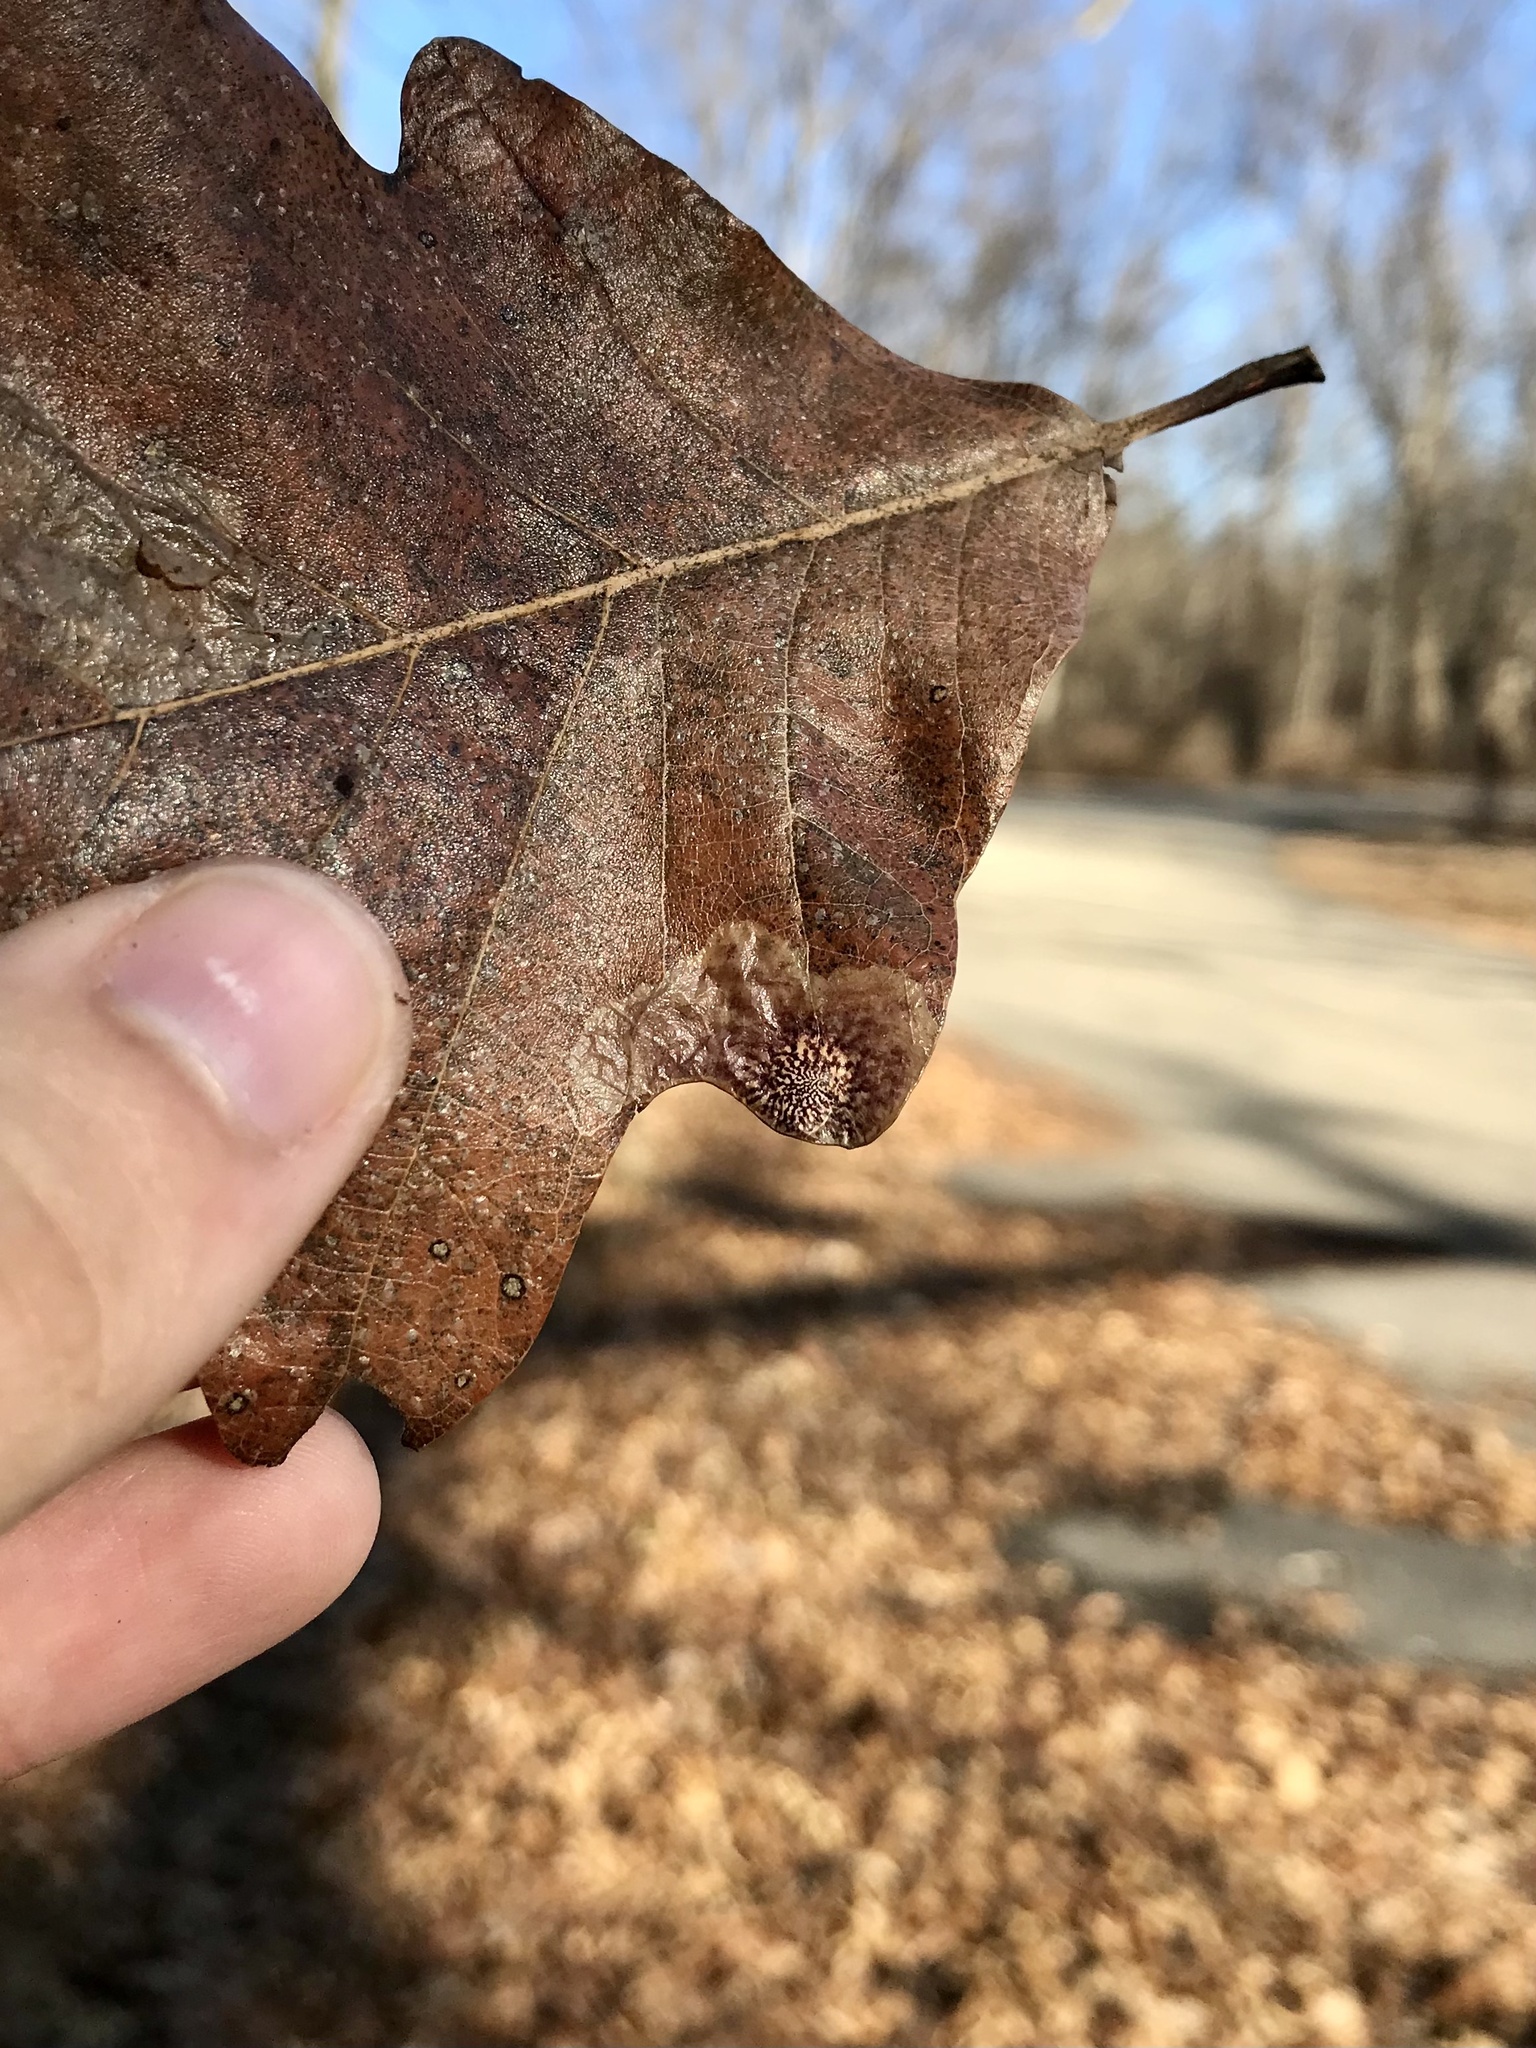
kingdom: Animalia
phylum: Arthropoda
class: Insecta
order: Lepidoptera
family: Tischeriidae
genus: Tischeria
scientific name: Tischeria quercitella
